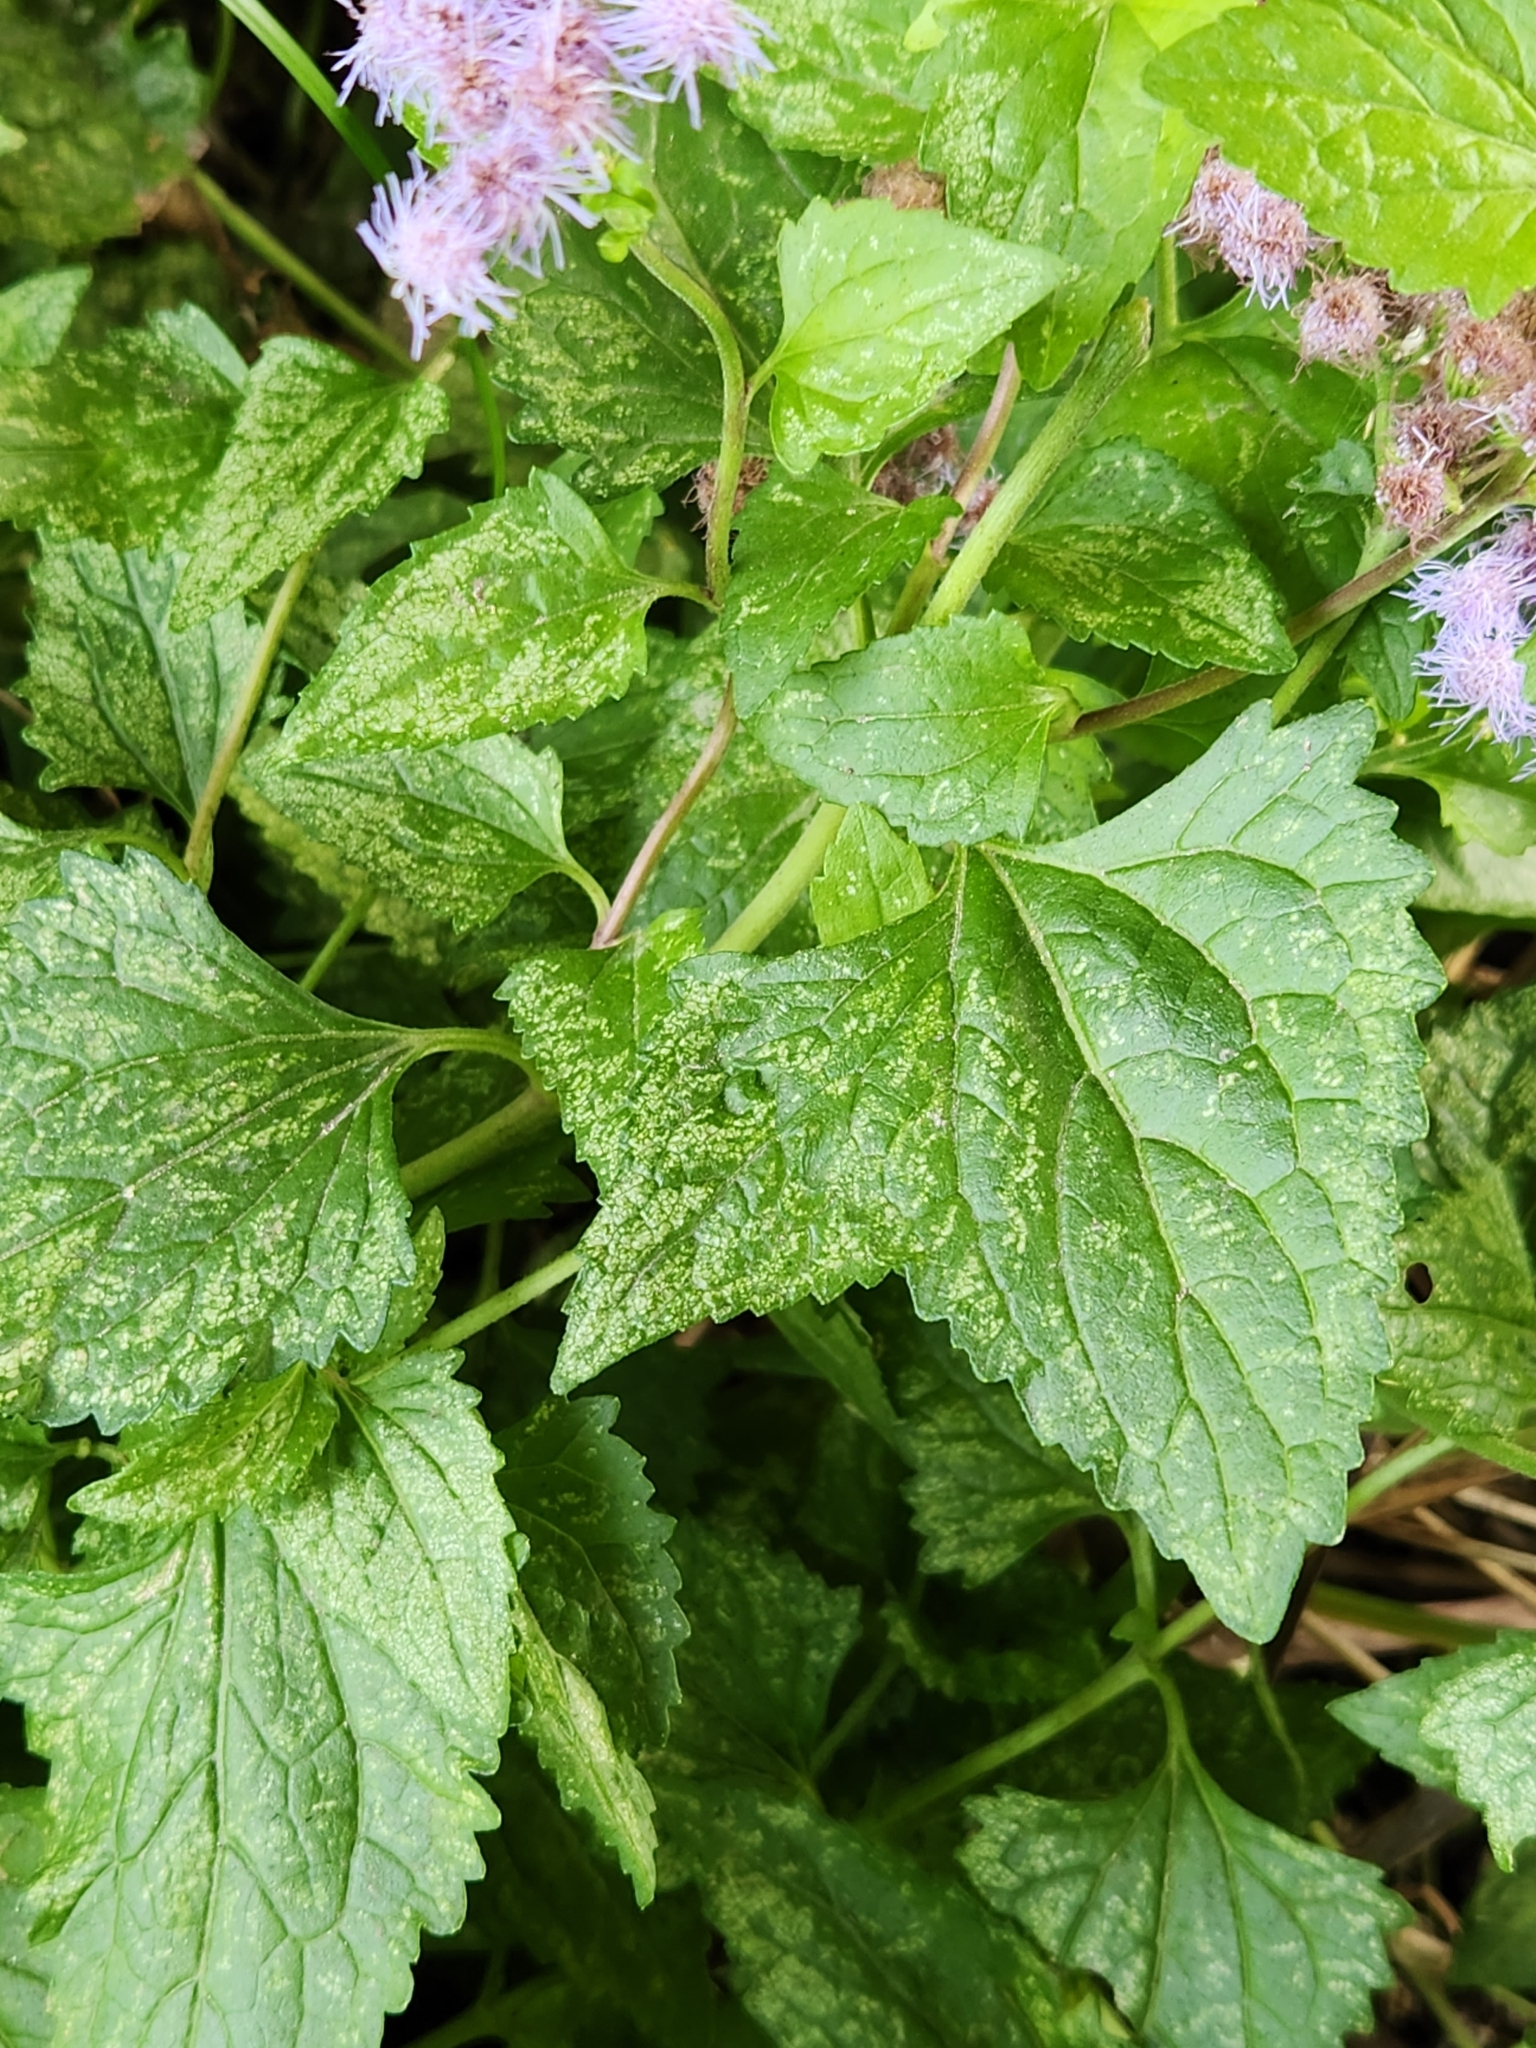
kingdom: Plantae
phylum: Tracheophyta
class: Magnoliopsida
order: Asterales
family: Asteraceae
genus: Conoclinium
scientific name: Conoclinium coelestinum
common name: Blue mistflower
